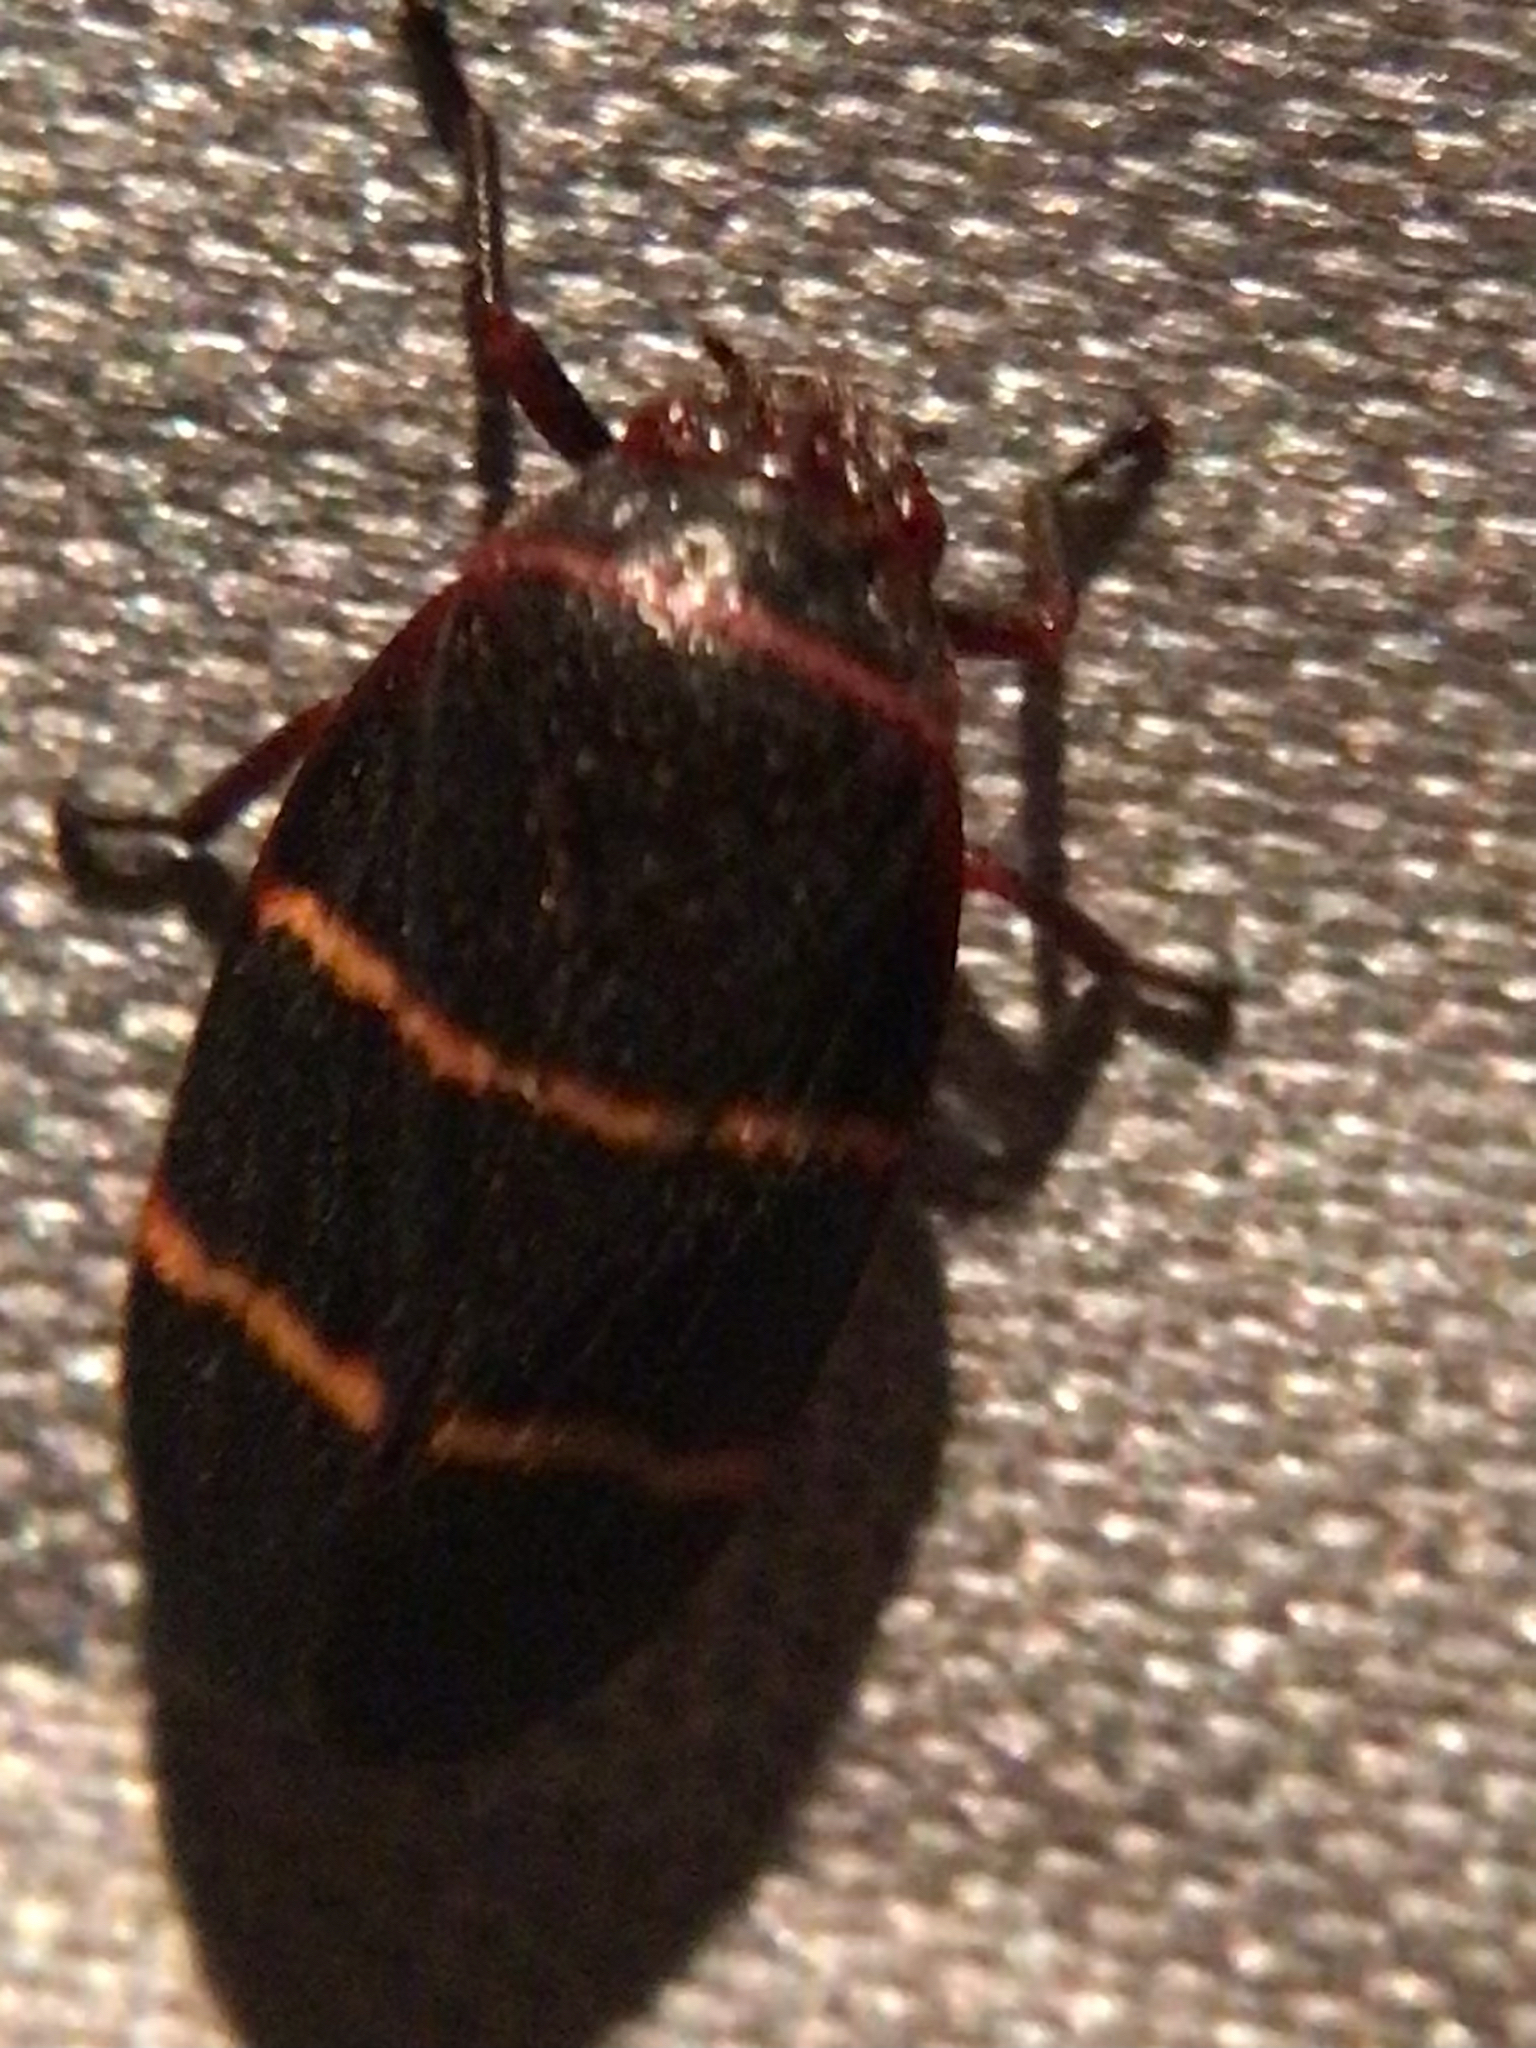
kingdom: Animalia
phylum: Arthropoda
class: Insecta
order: Hemiptera
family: Cercopidae
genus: Prosapia
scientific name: Prosapia bicincta
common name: Twolined spittlebug
